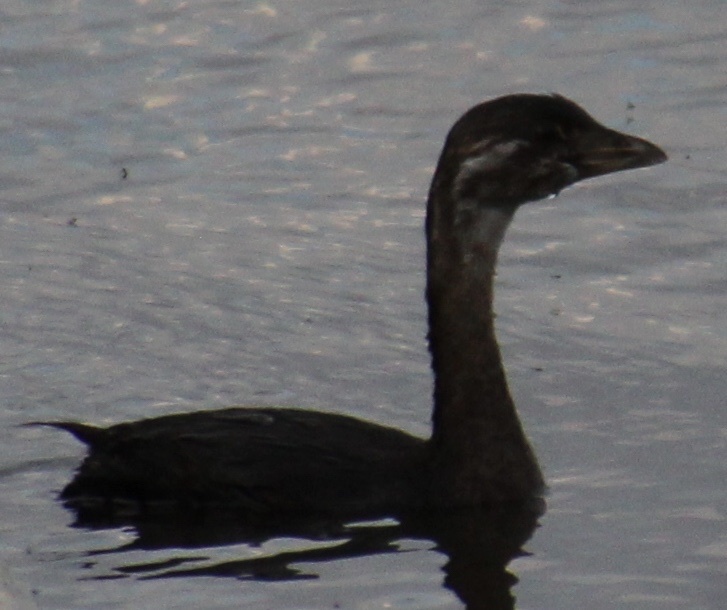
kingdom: Animalia
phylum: Chordata
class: Aves
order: Podicipediformes
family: Podicipedidae
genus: Podilymbus
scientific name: Podilymbus podiceps
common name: Pied-billed grebe
